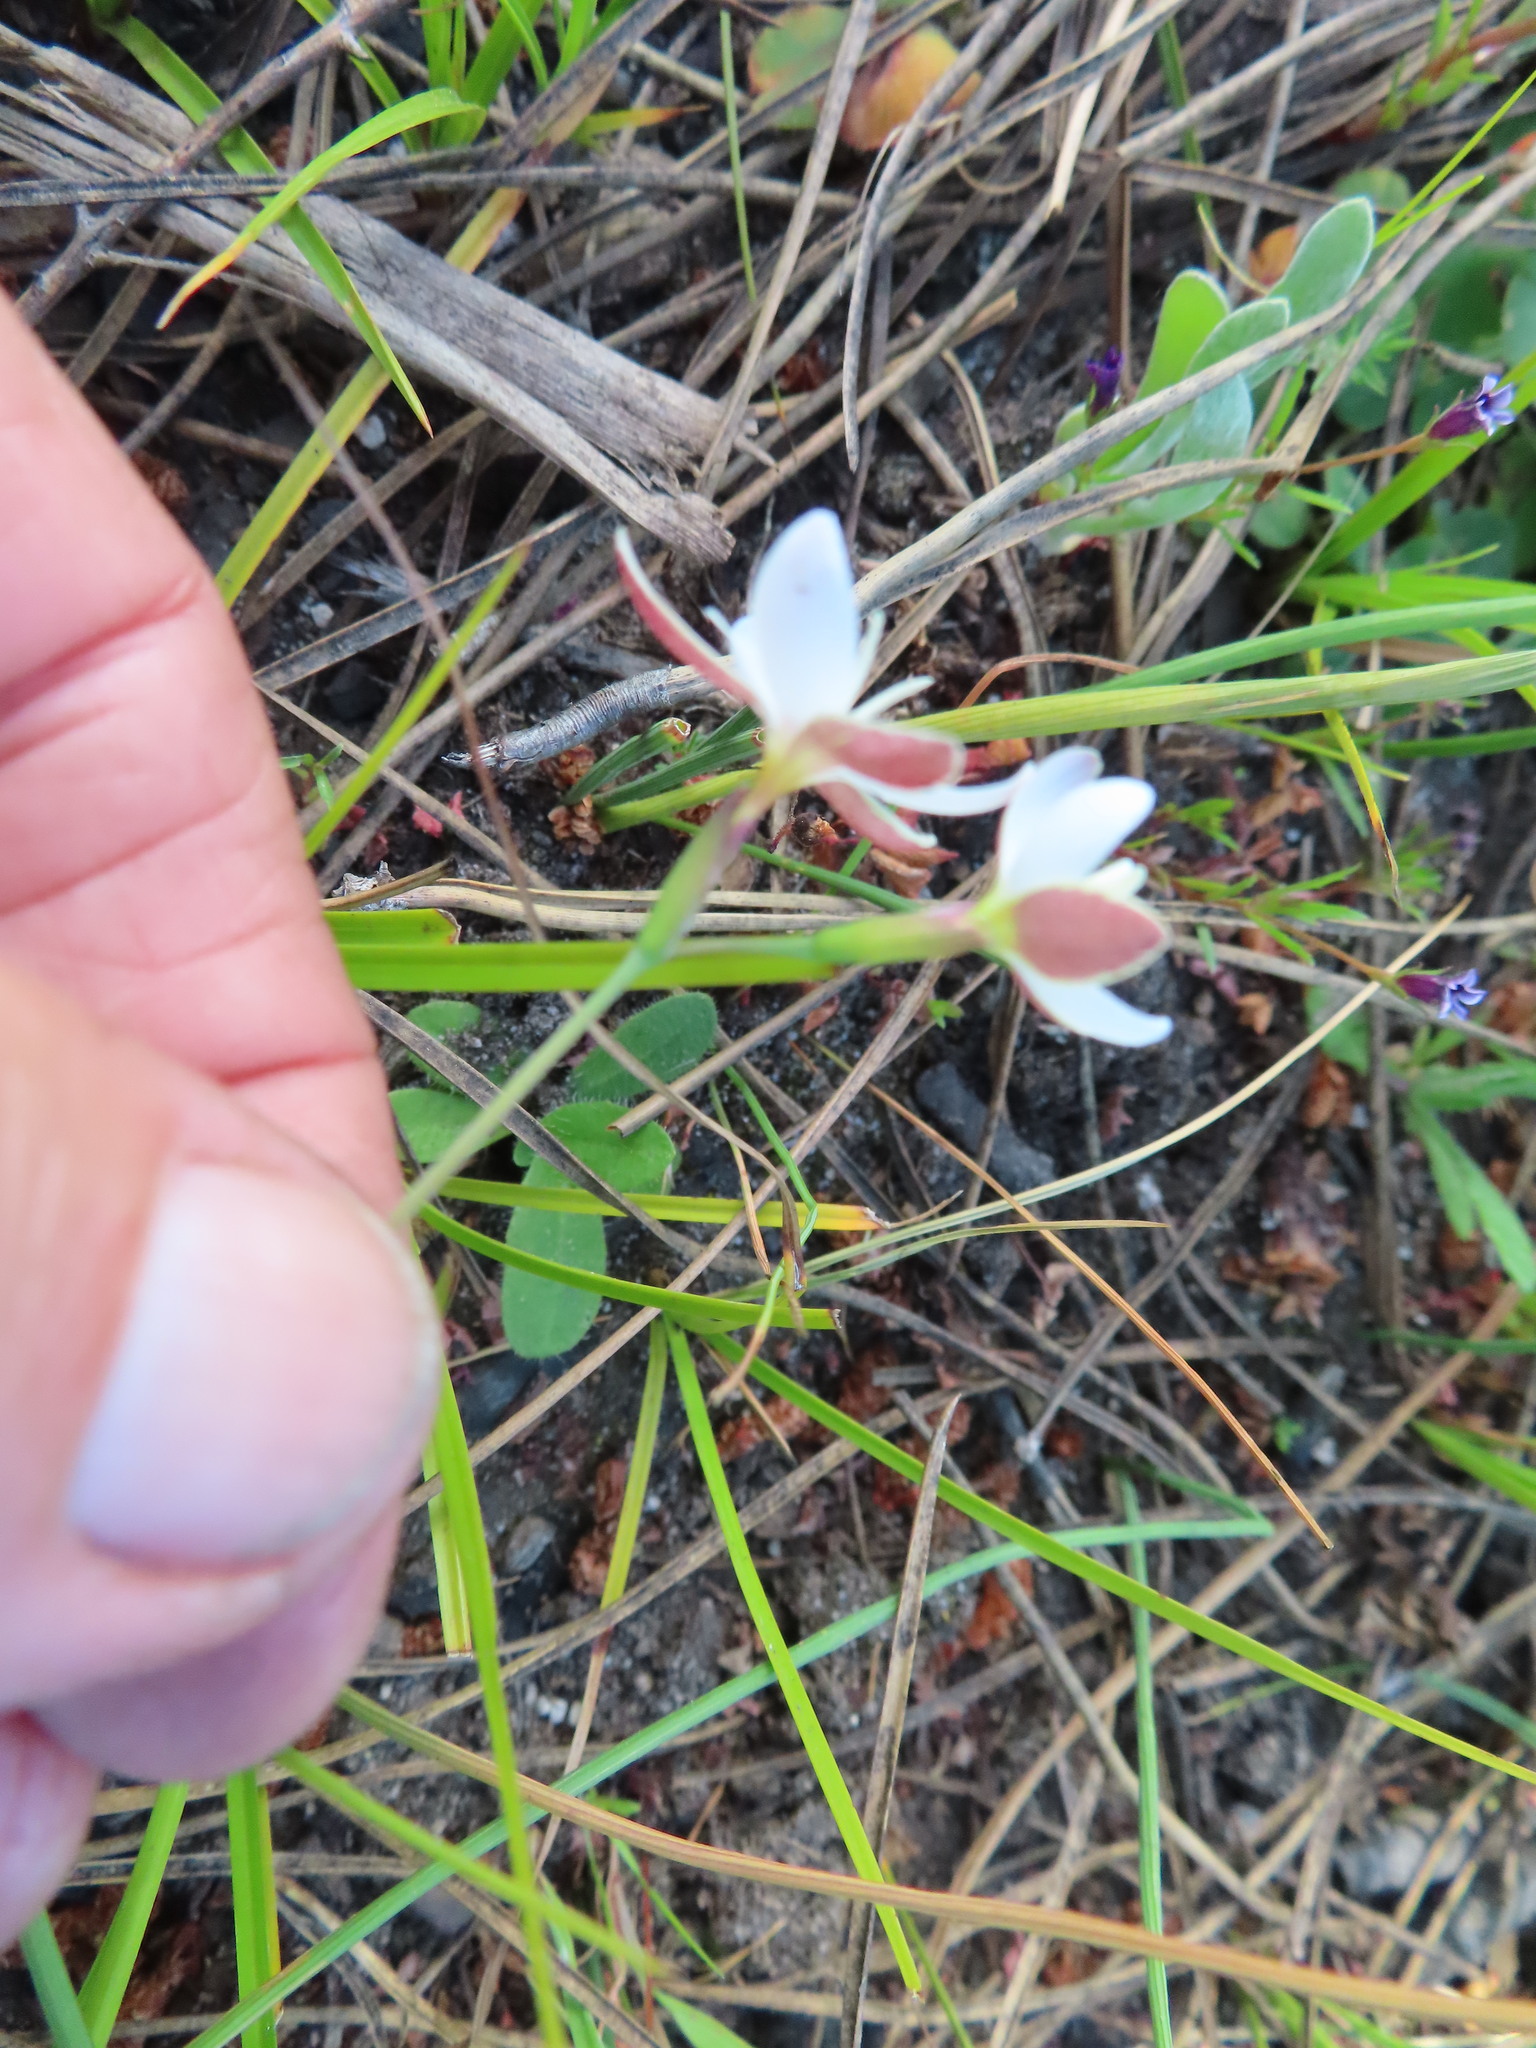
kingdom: Plantae
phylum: Tracheophyta
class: Liliopsida
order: Asparagales
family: Iridaceae
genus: Hesperantha
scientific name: Hesperantha falcata
